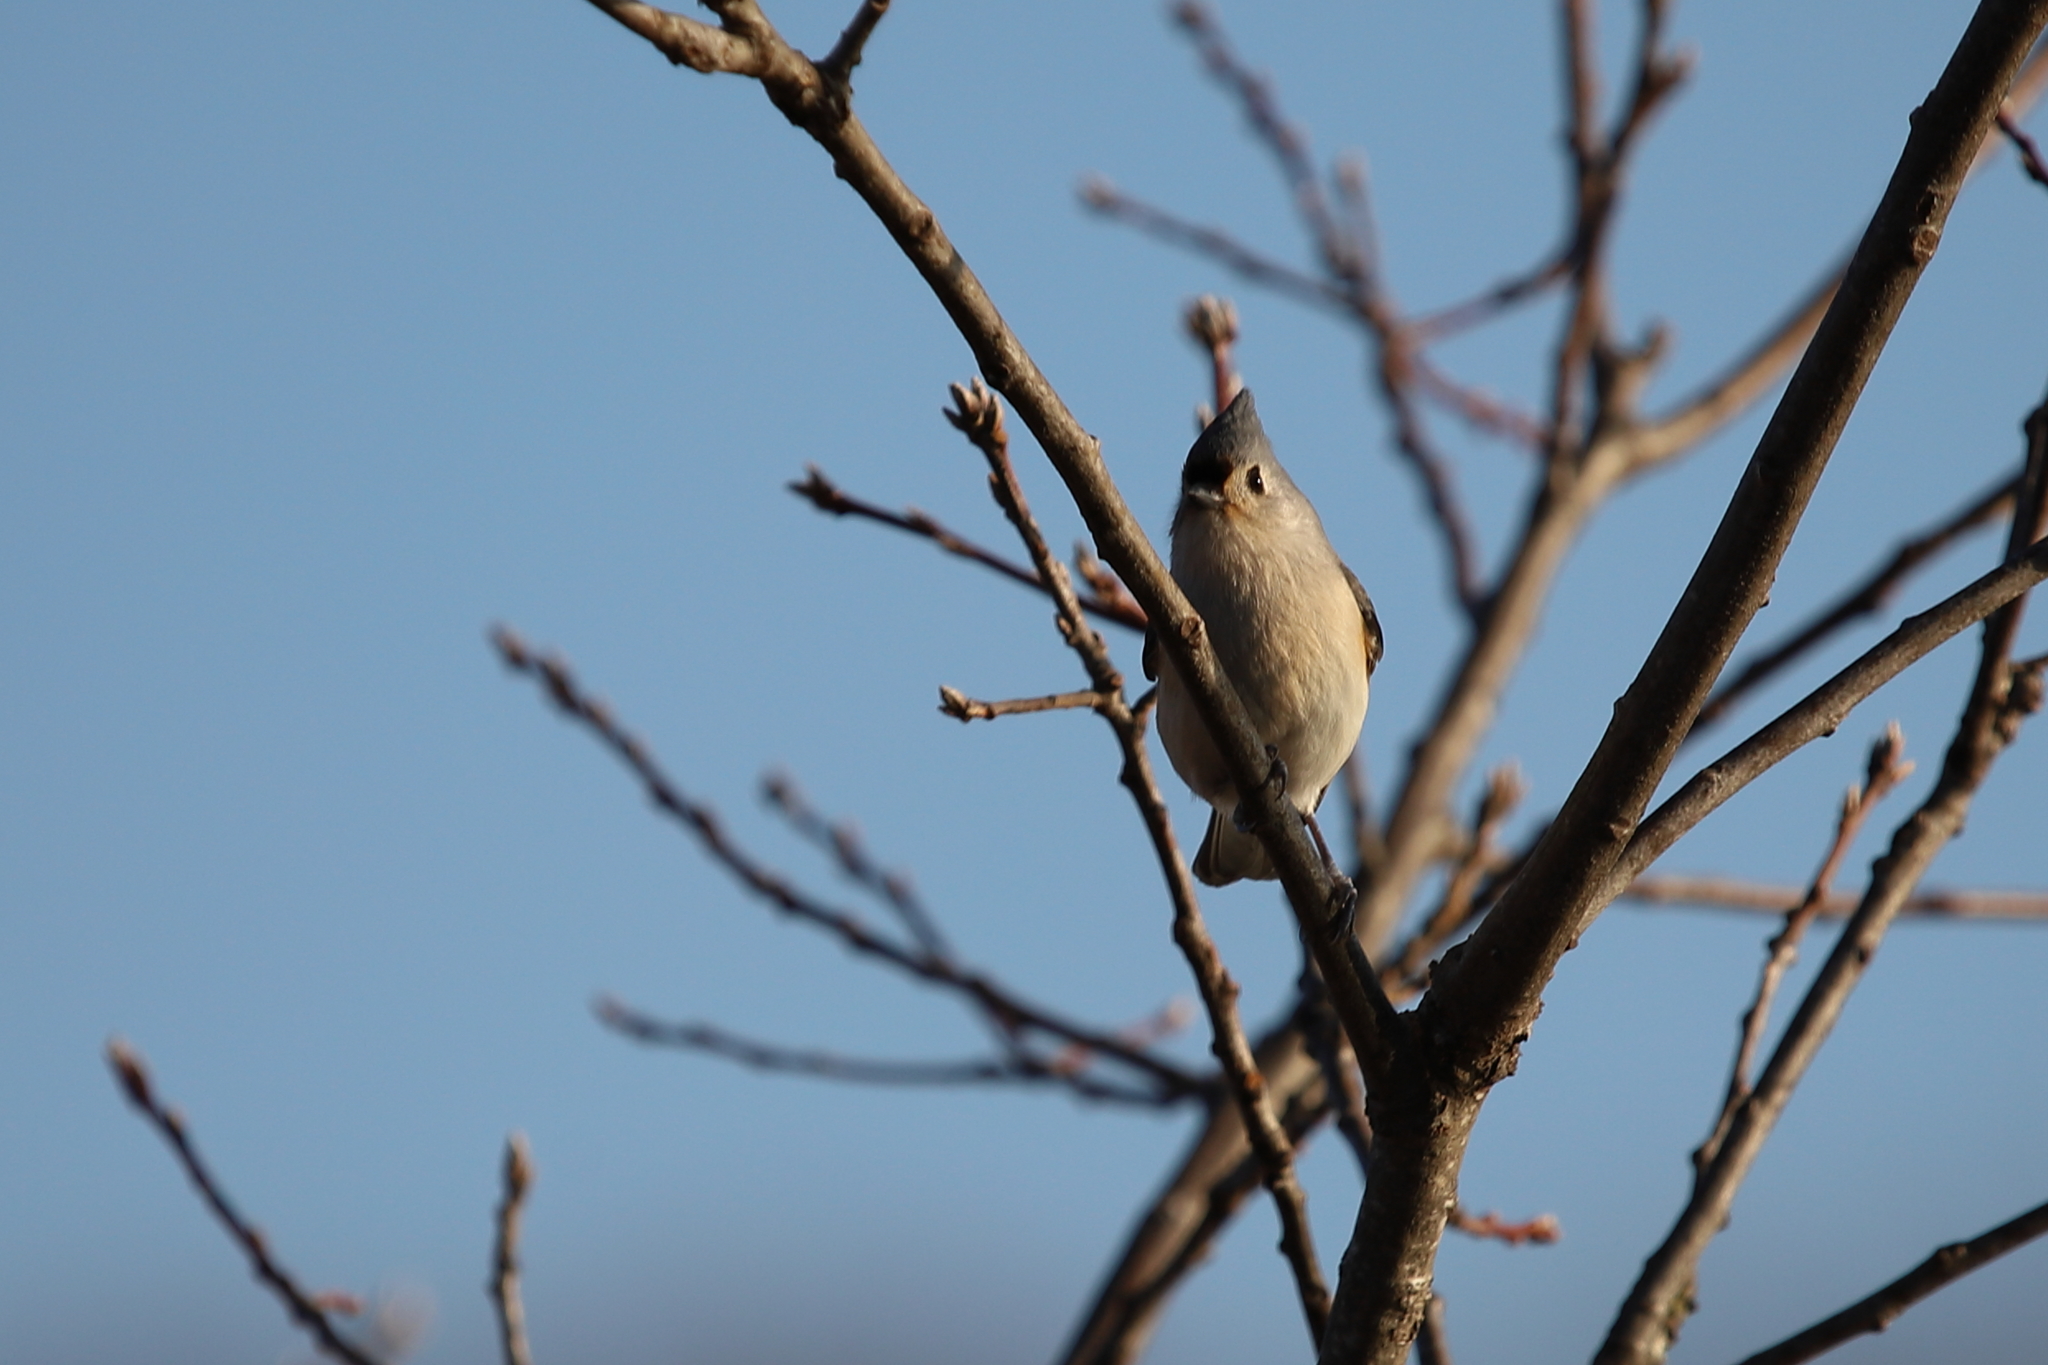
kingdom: Animalia
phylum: Chordata
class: Aves
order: Passeriformes
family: Paridae
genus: Baeolophus
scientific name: Baeolophus bicolor
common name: Tufted titmouse
